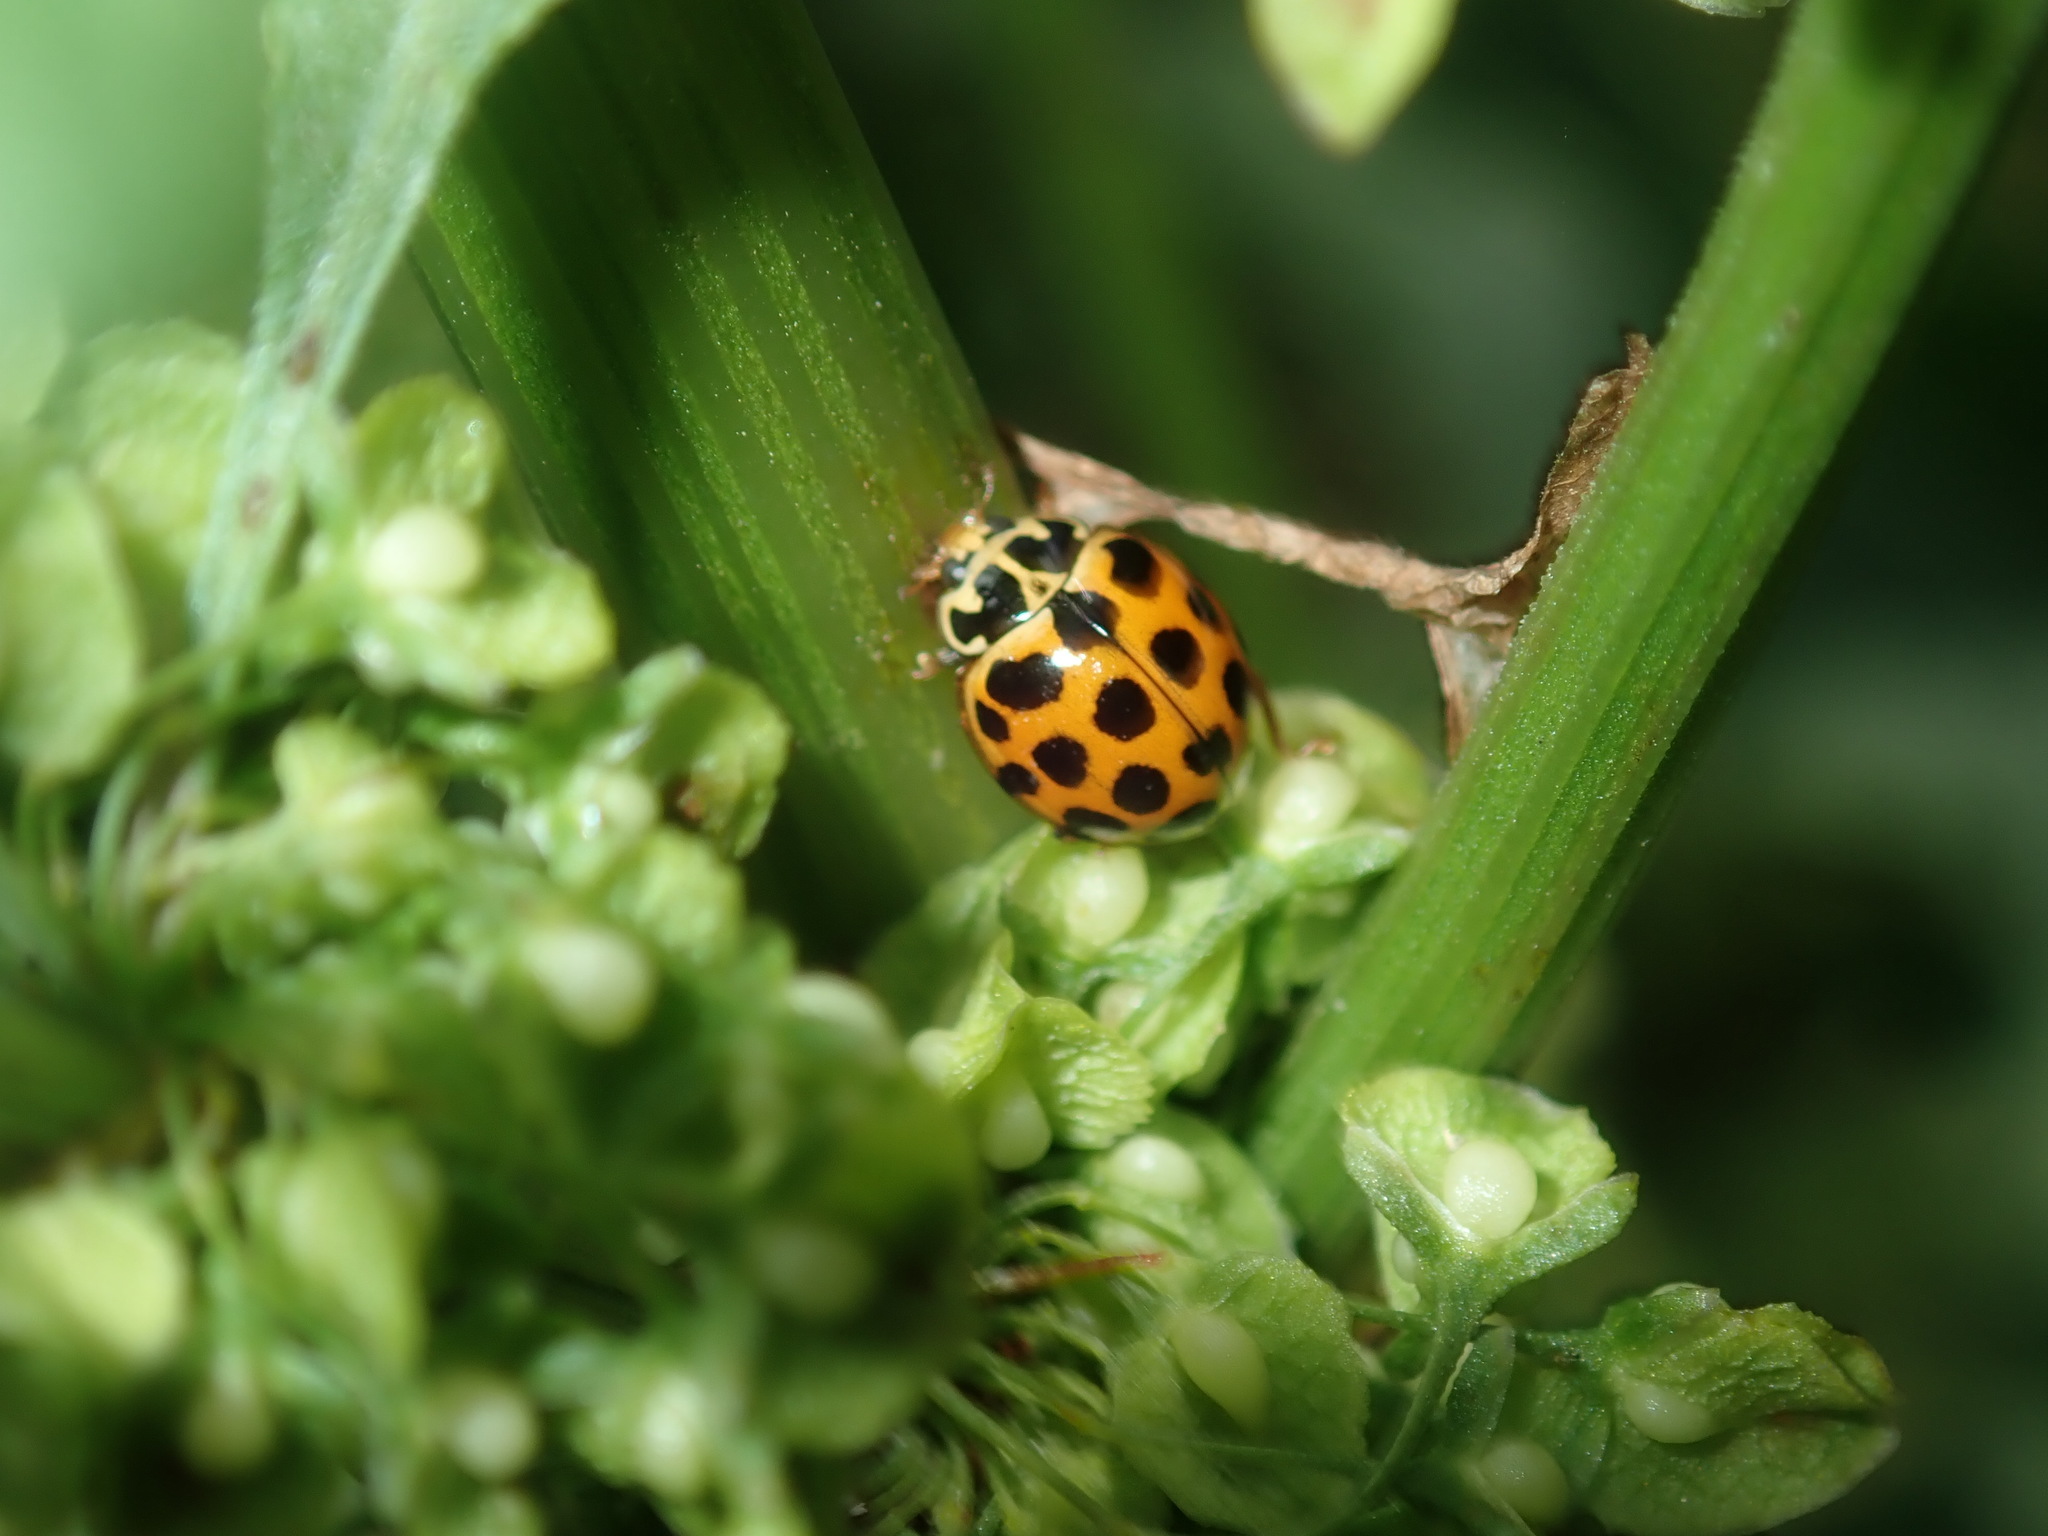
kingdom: Animalia
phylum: Arthropoda
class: Insecta
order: Coleoptera
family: Coccinellidae
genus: Harmonia
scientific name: Harmonia conformis
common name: Common spotted ladybird beetle
